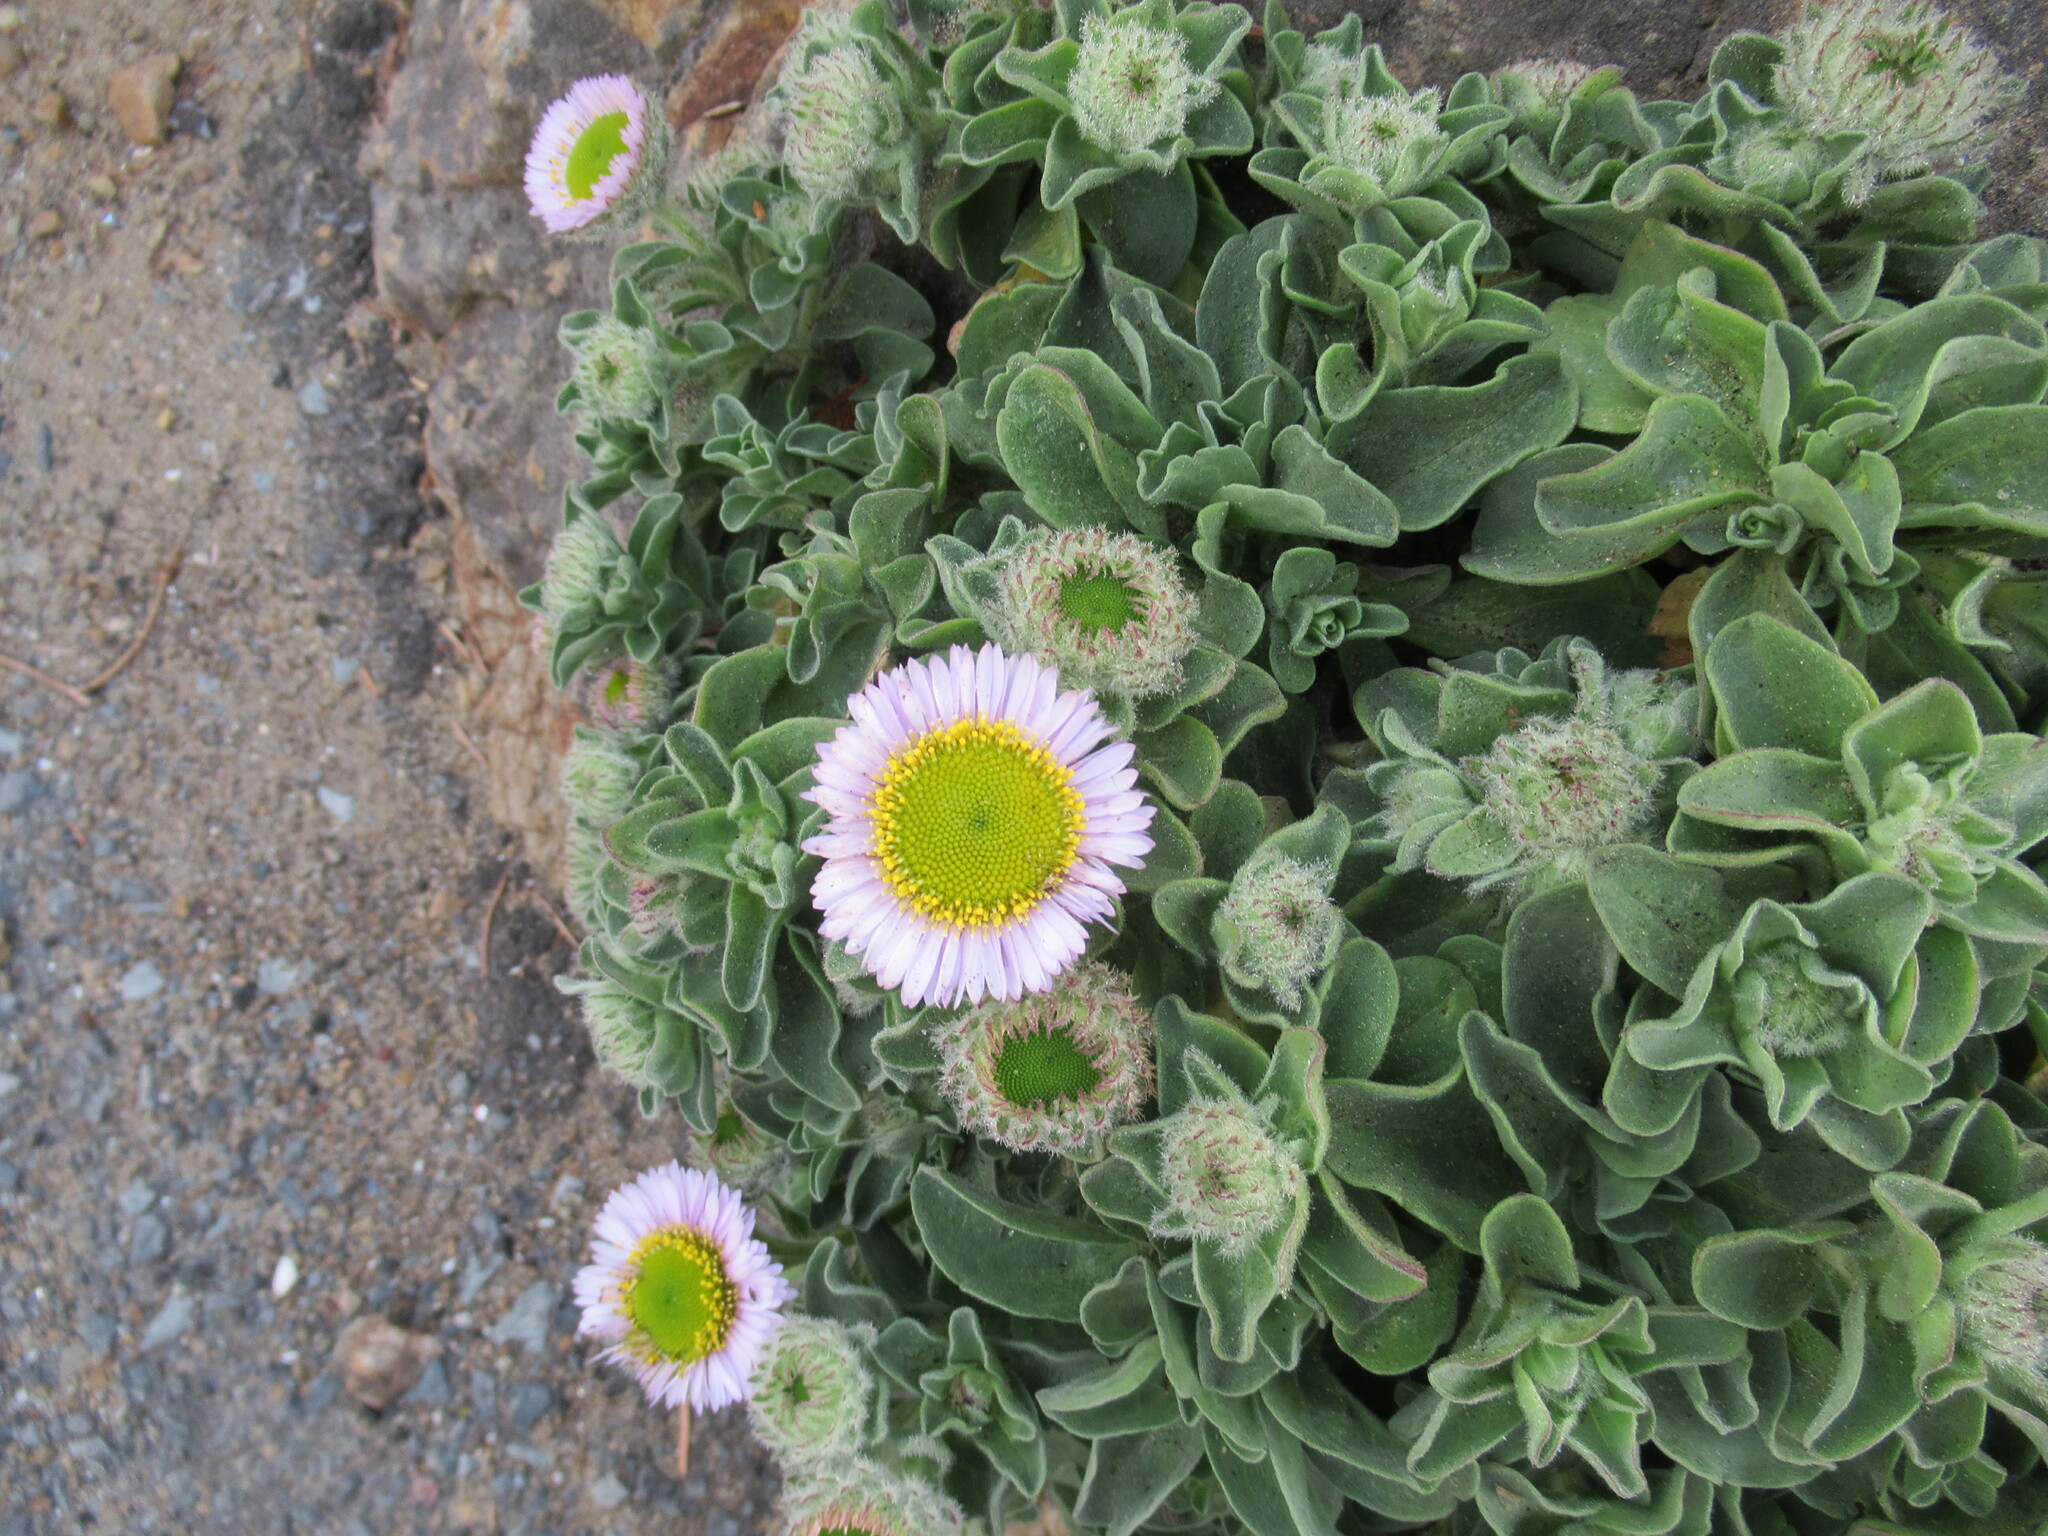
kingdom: Plantae
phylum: Tracheophyta
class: Magnoliopsida
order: Asterales
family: Asteraceae
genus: Erigeron
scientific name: Erigeron glaucus
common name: Seaside daisy
